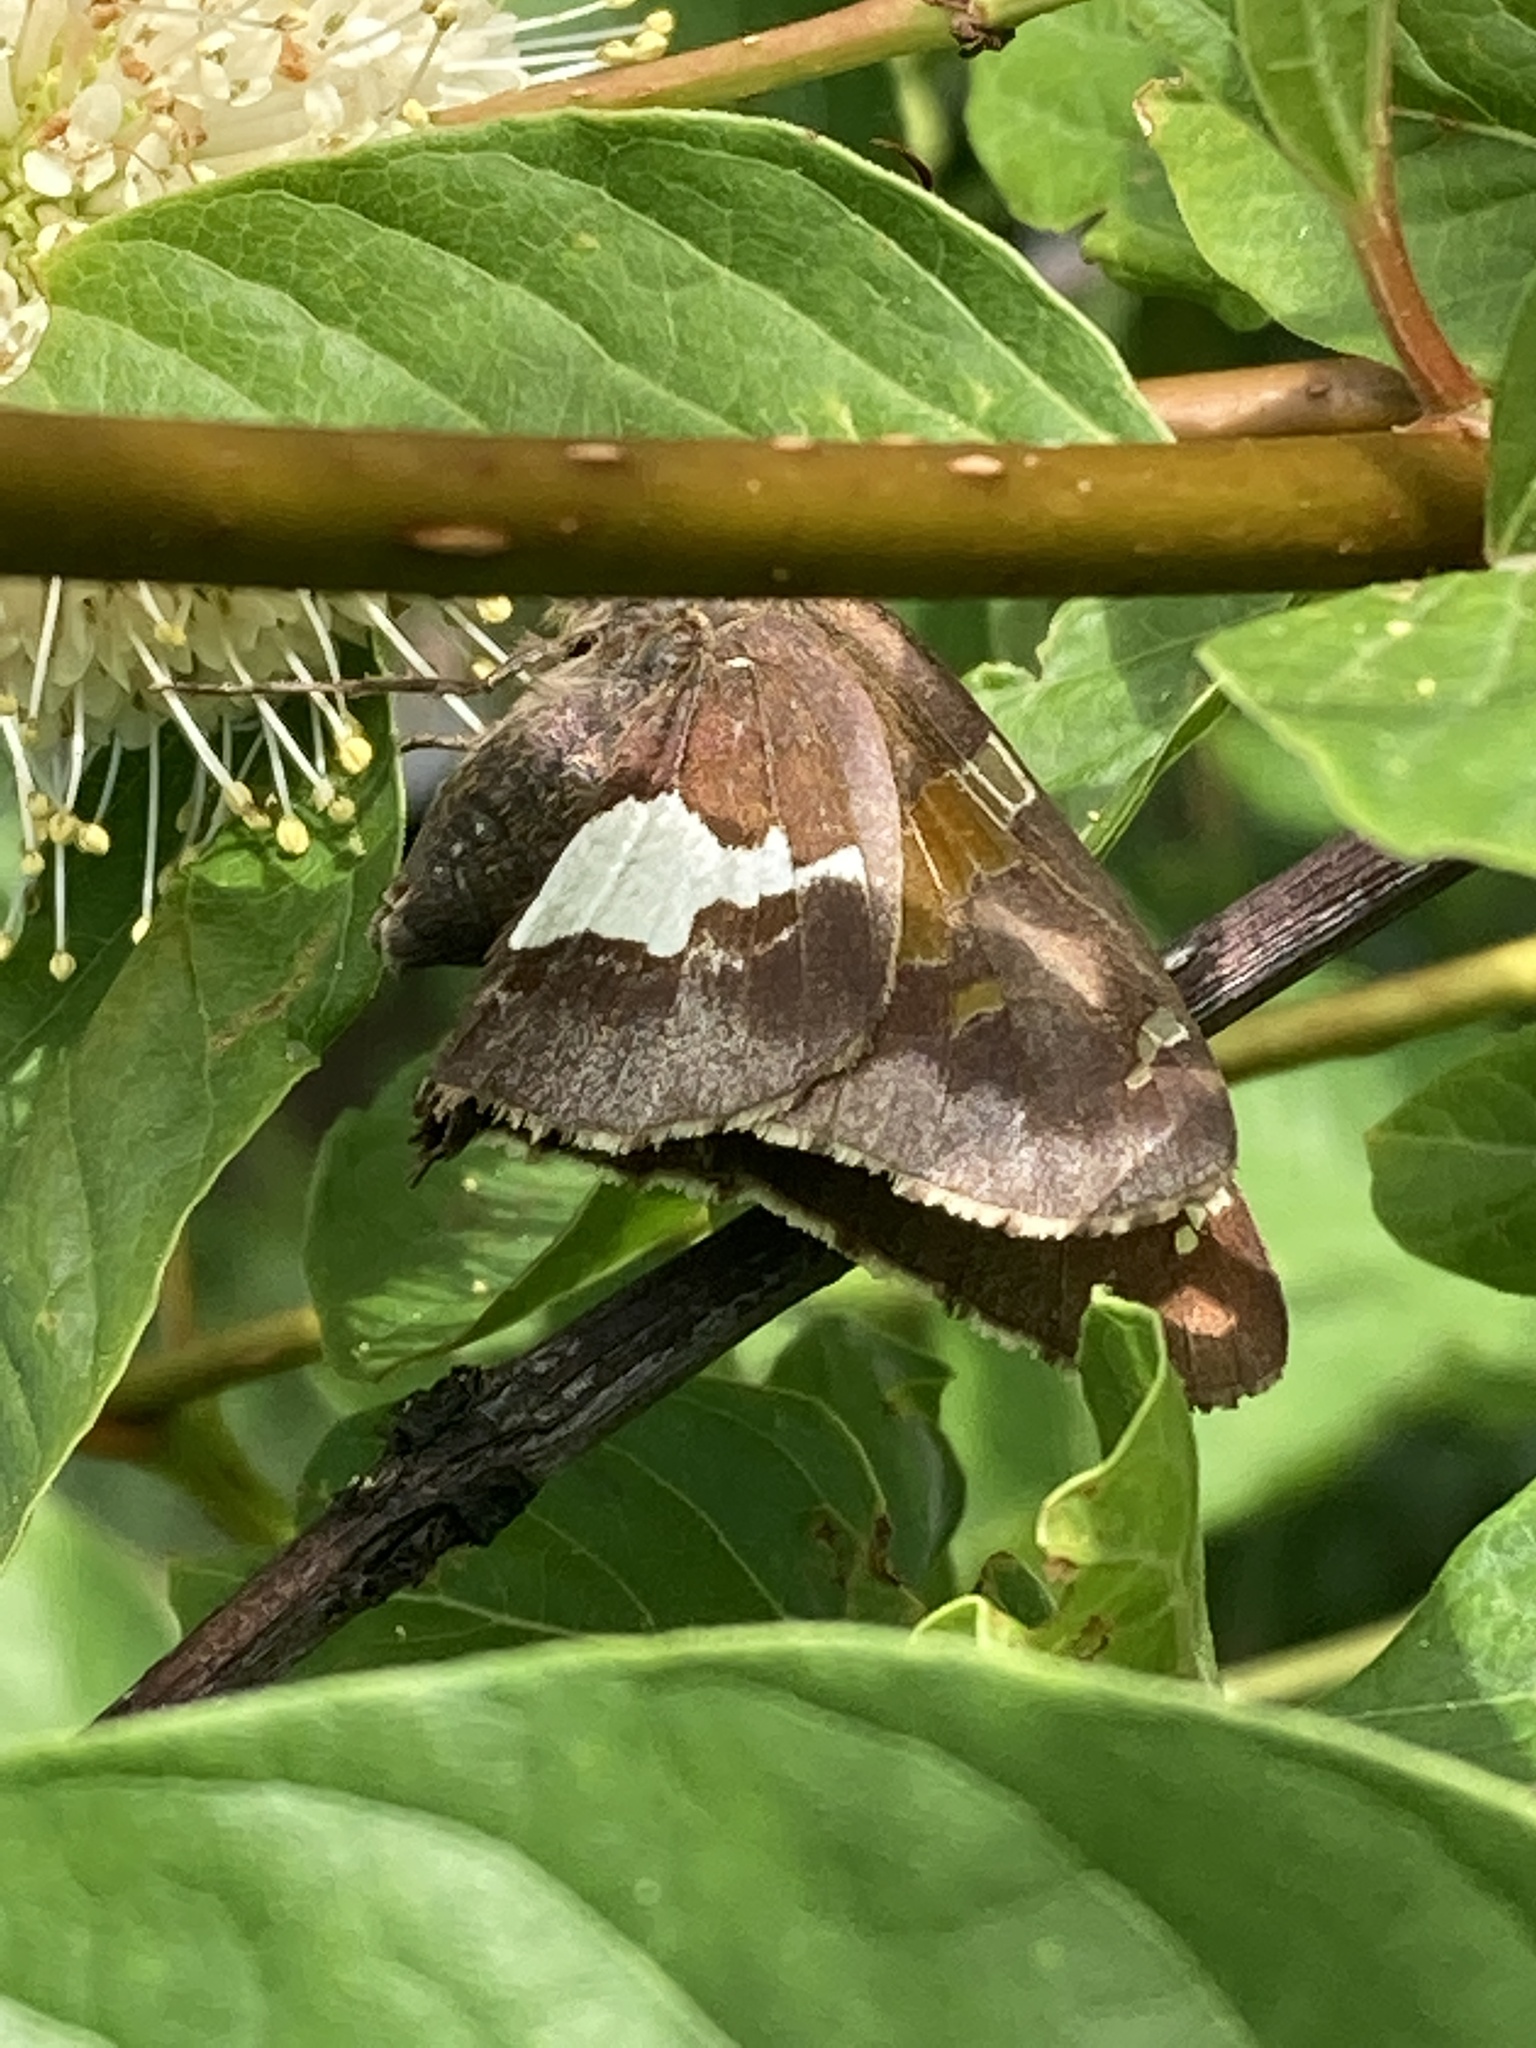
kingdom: Animalia
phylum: Arthropoda
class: Insecta
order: Lepidoptera
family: Hesperiidae
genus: Epargyreus
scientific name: Epargyreus clarus
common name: Silver-spotted skipper
